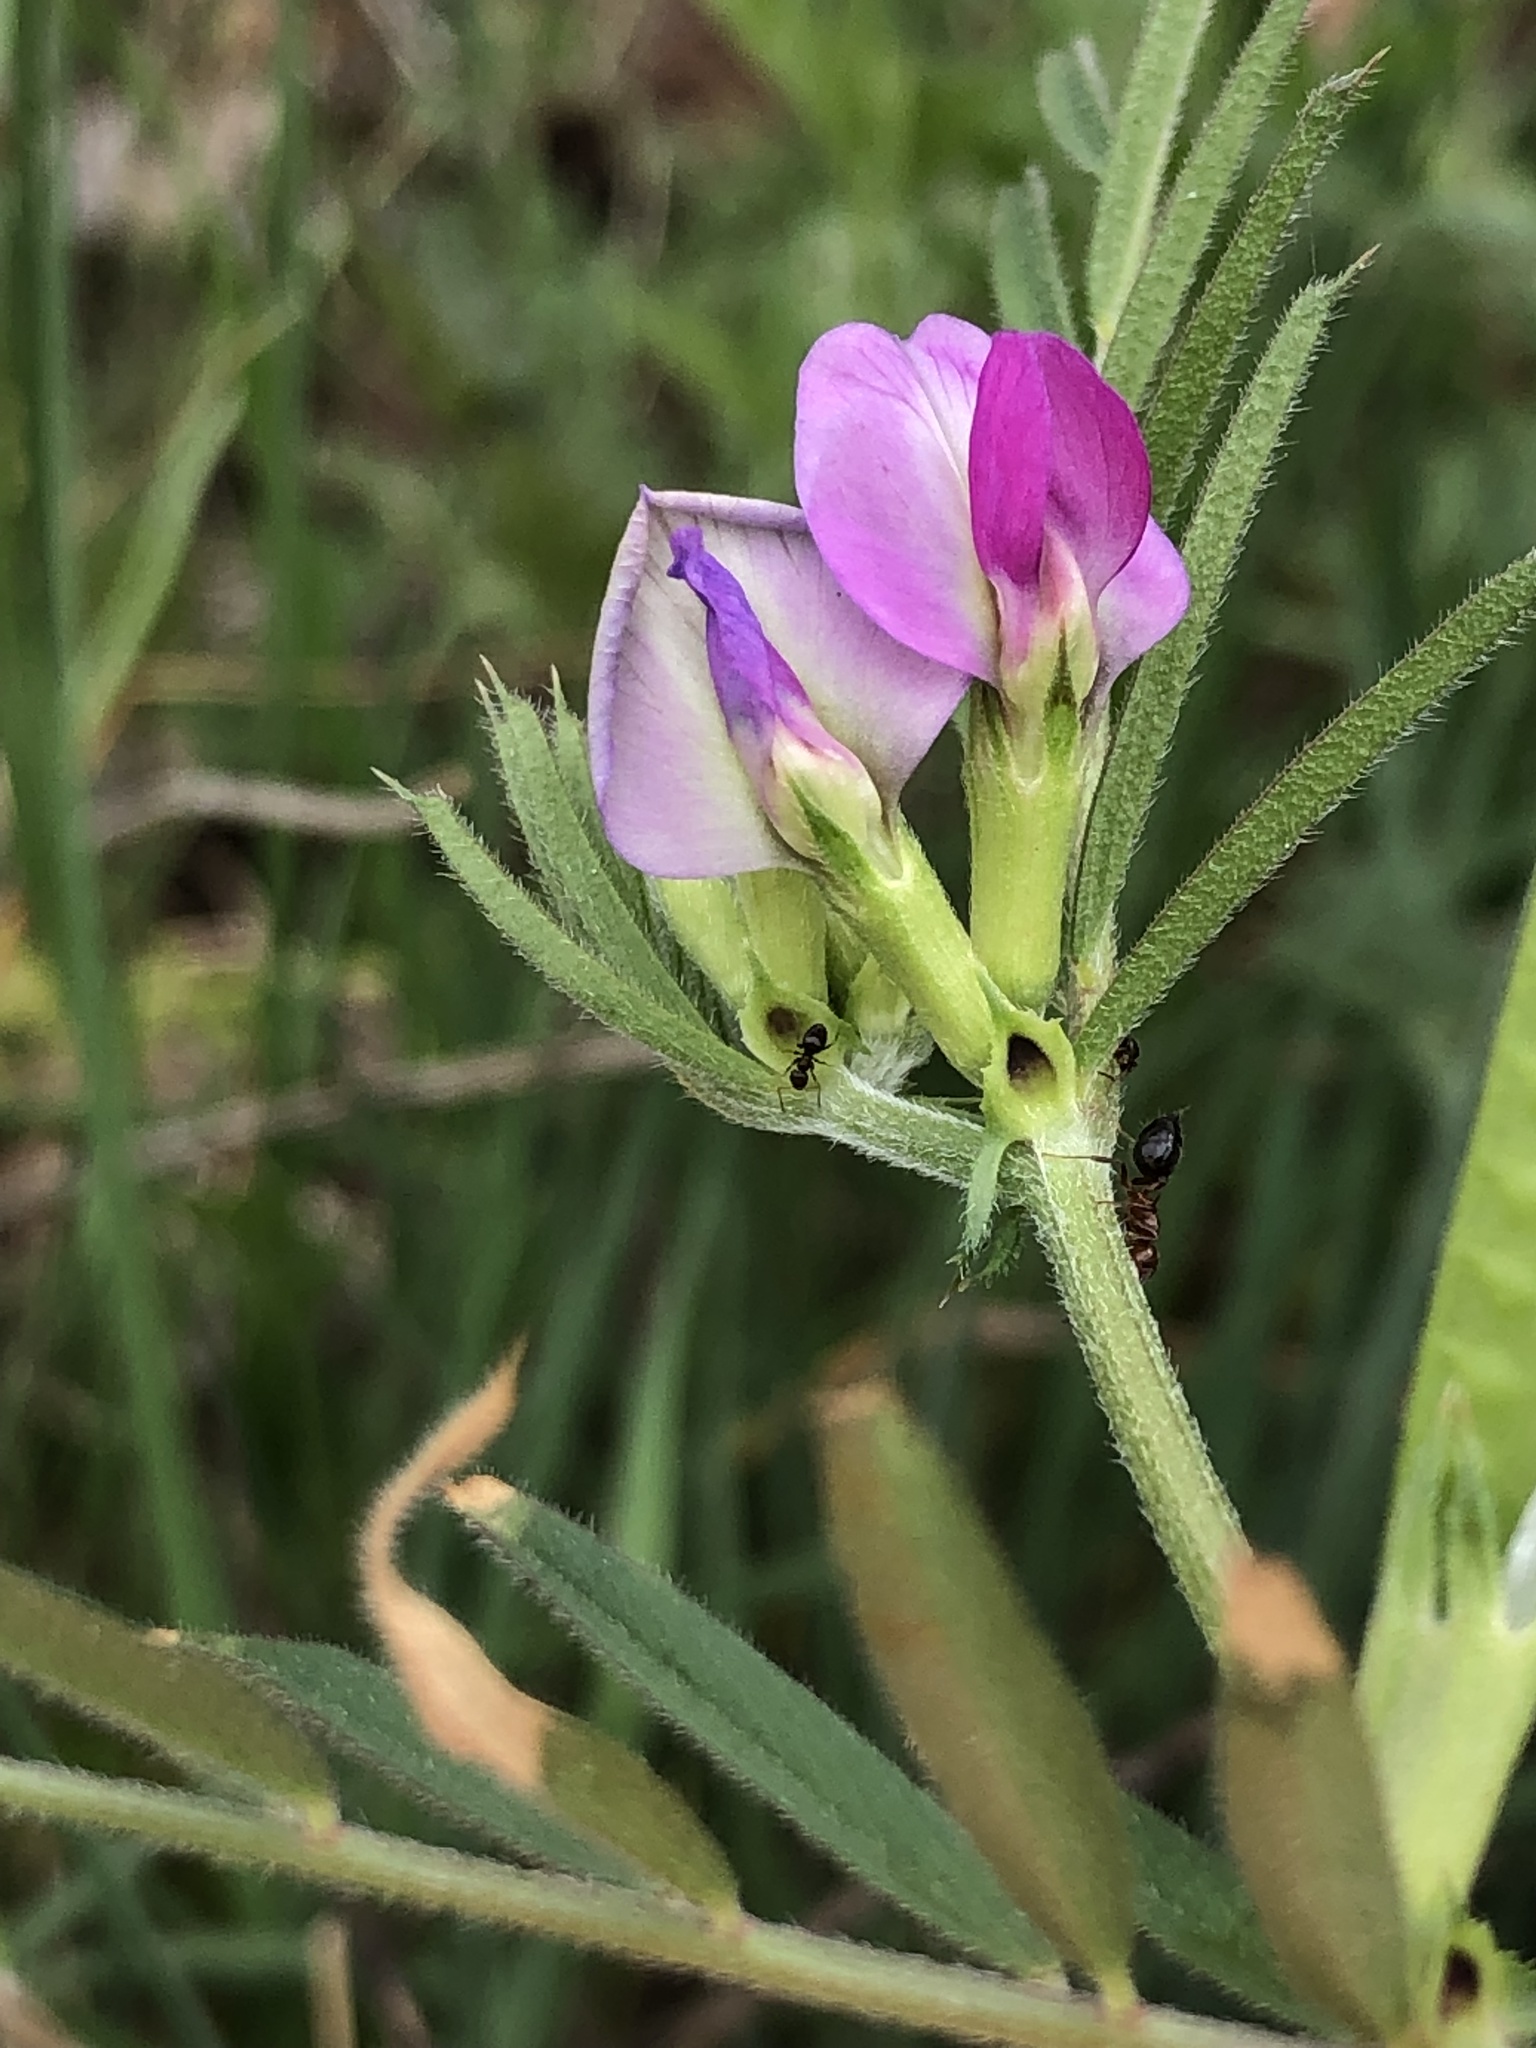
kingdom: Plantae
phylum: Tracheophyta
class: Magnoliopsida
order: Fabales
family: Fabaceae
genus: Vicia
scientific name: Vicia sativa
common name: Garden vetch
